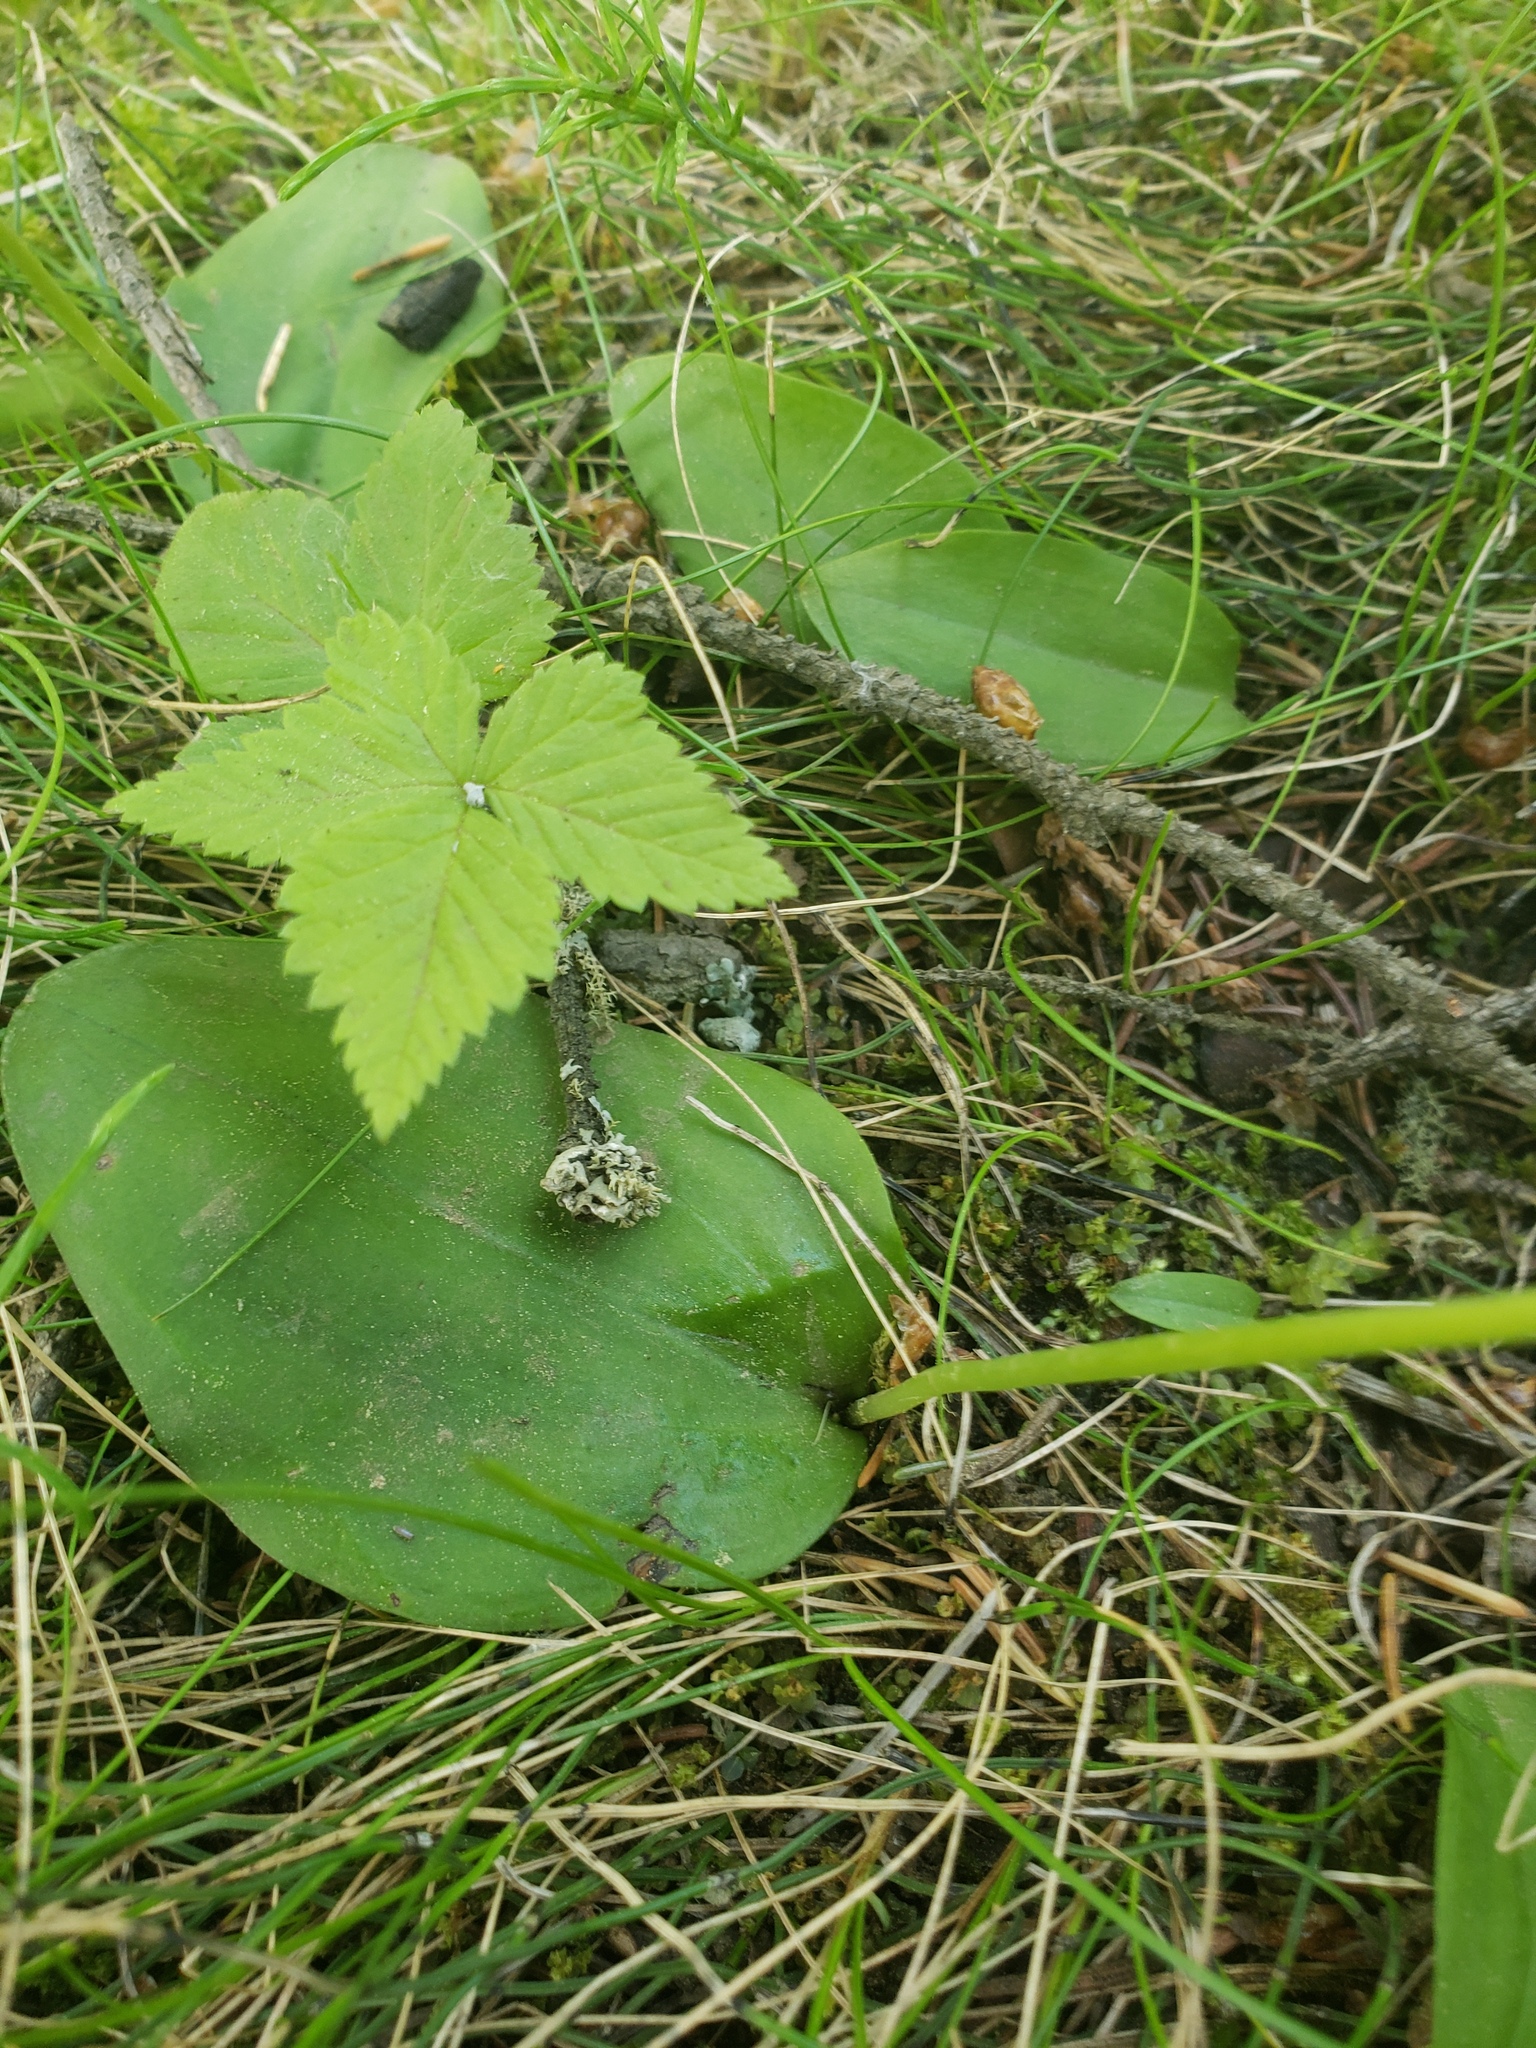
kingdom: Plantae
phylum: Tracheophyta
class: Liliopsida
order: Asparagales
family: Orchidaceae
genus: Galearis
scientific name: Galearis rotundifolia
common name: One-leaved orchis
